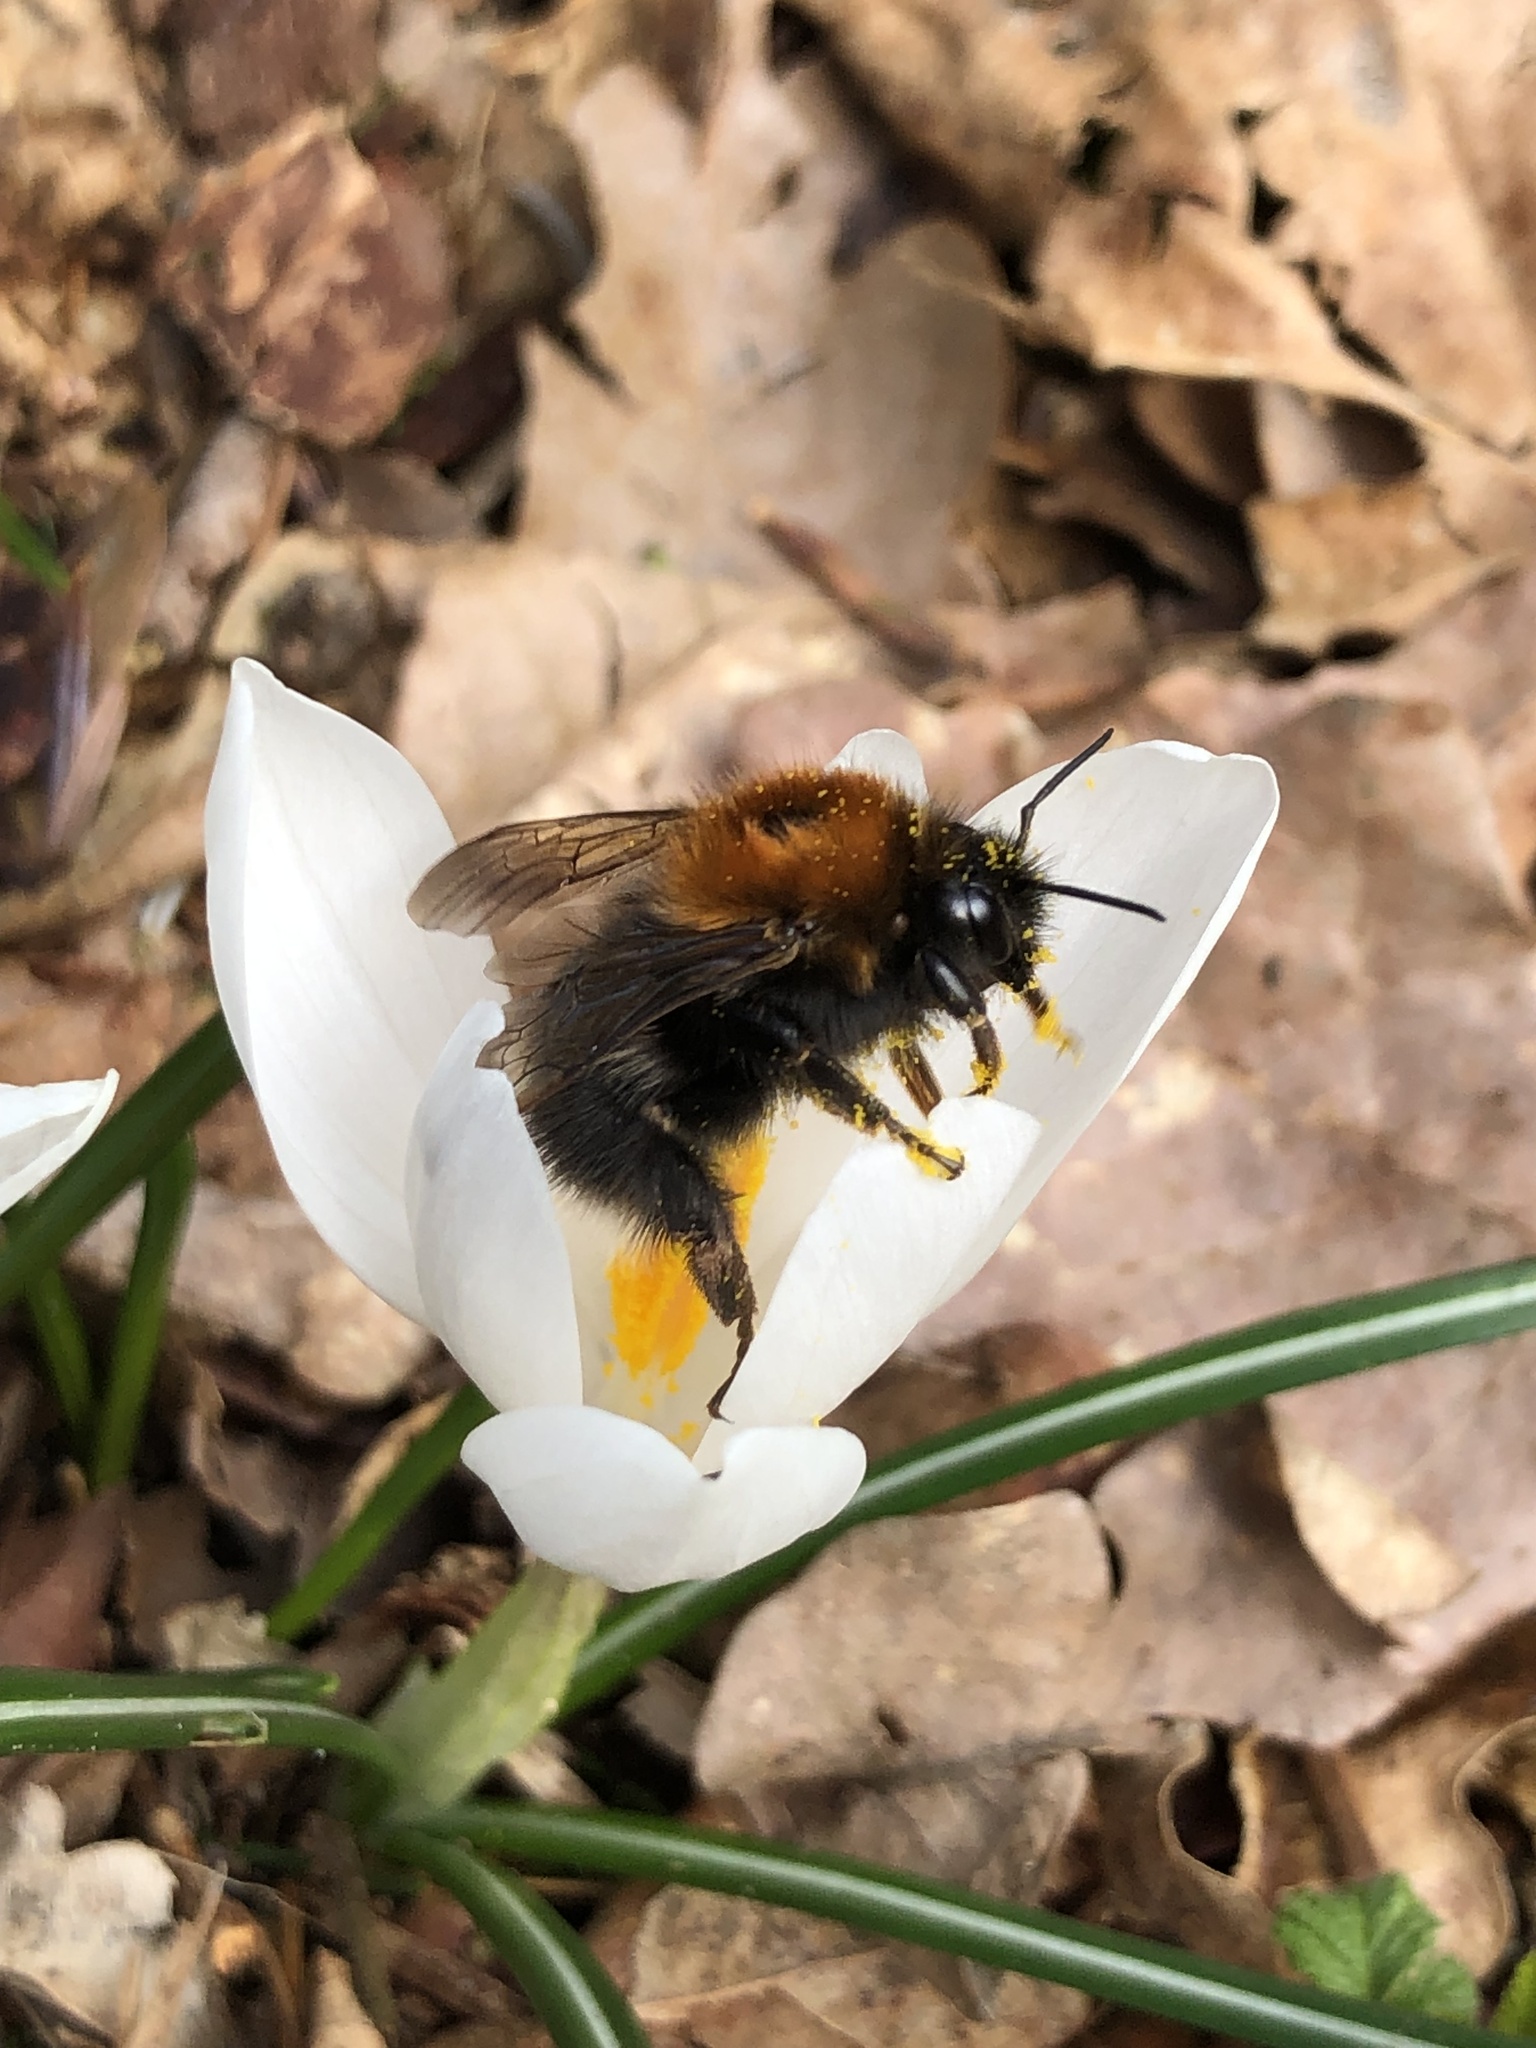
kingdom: Animalia
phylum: Arthropoda
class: Insecta
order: Hymenoptera
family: Apidae
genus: Bombus
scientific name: Bombus hypnorum
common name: New garden bumblebee
